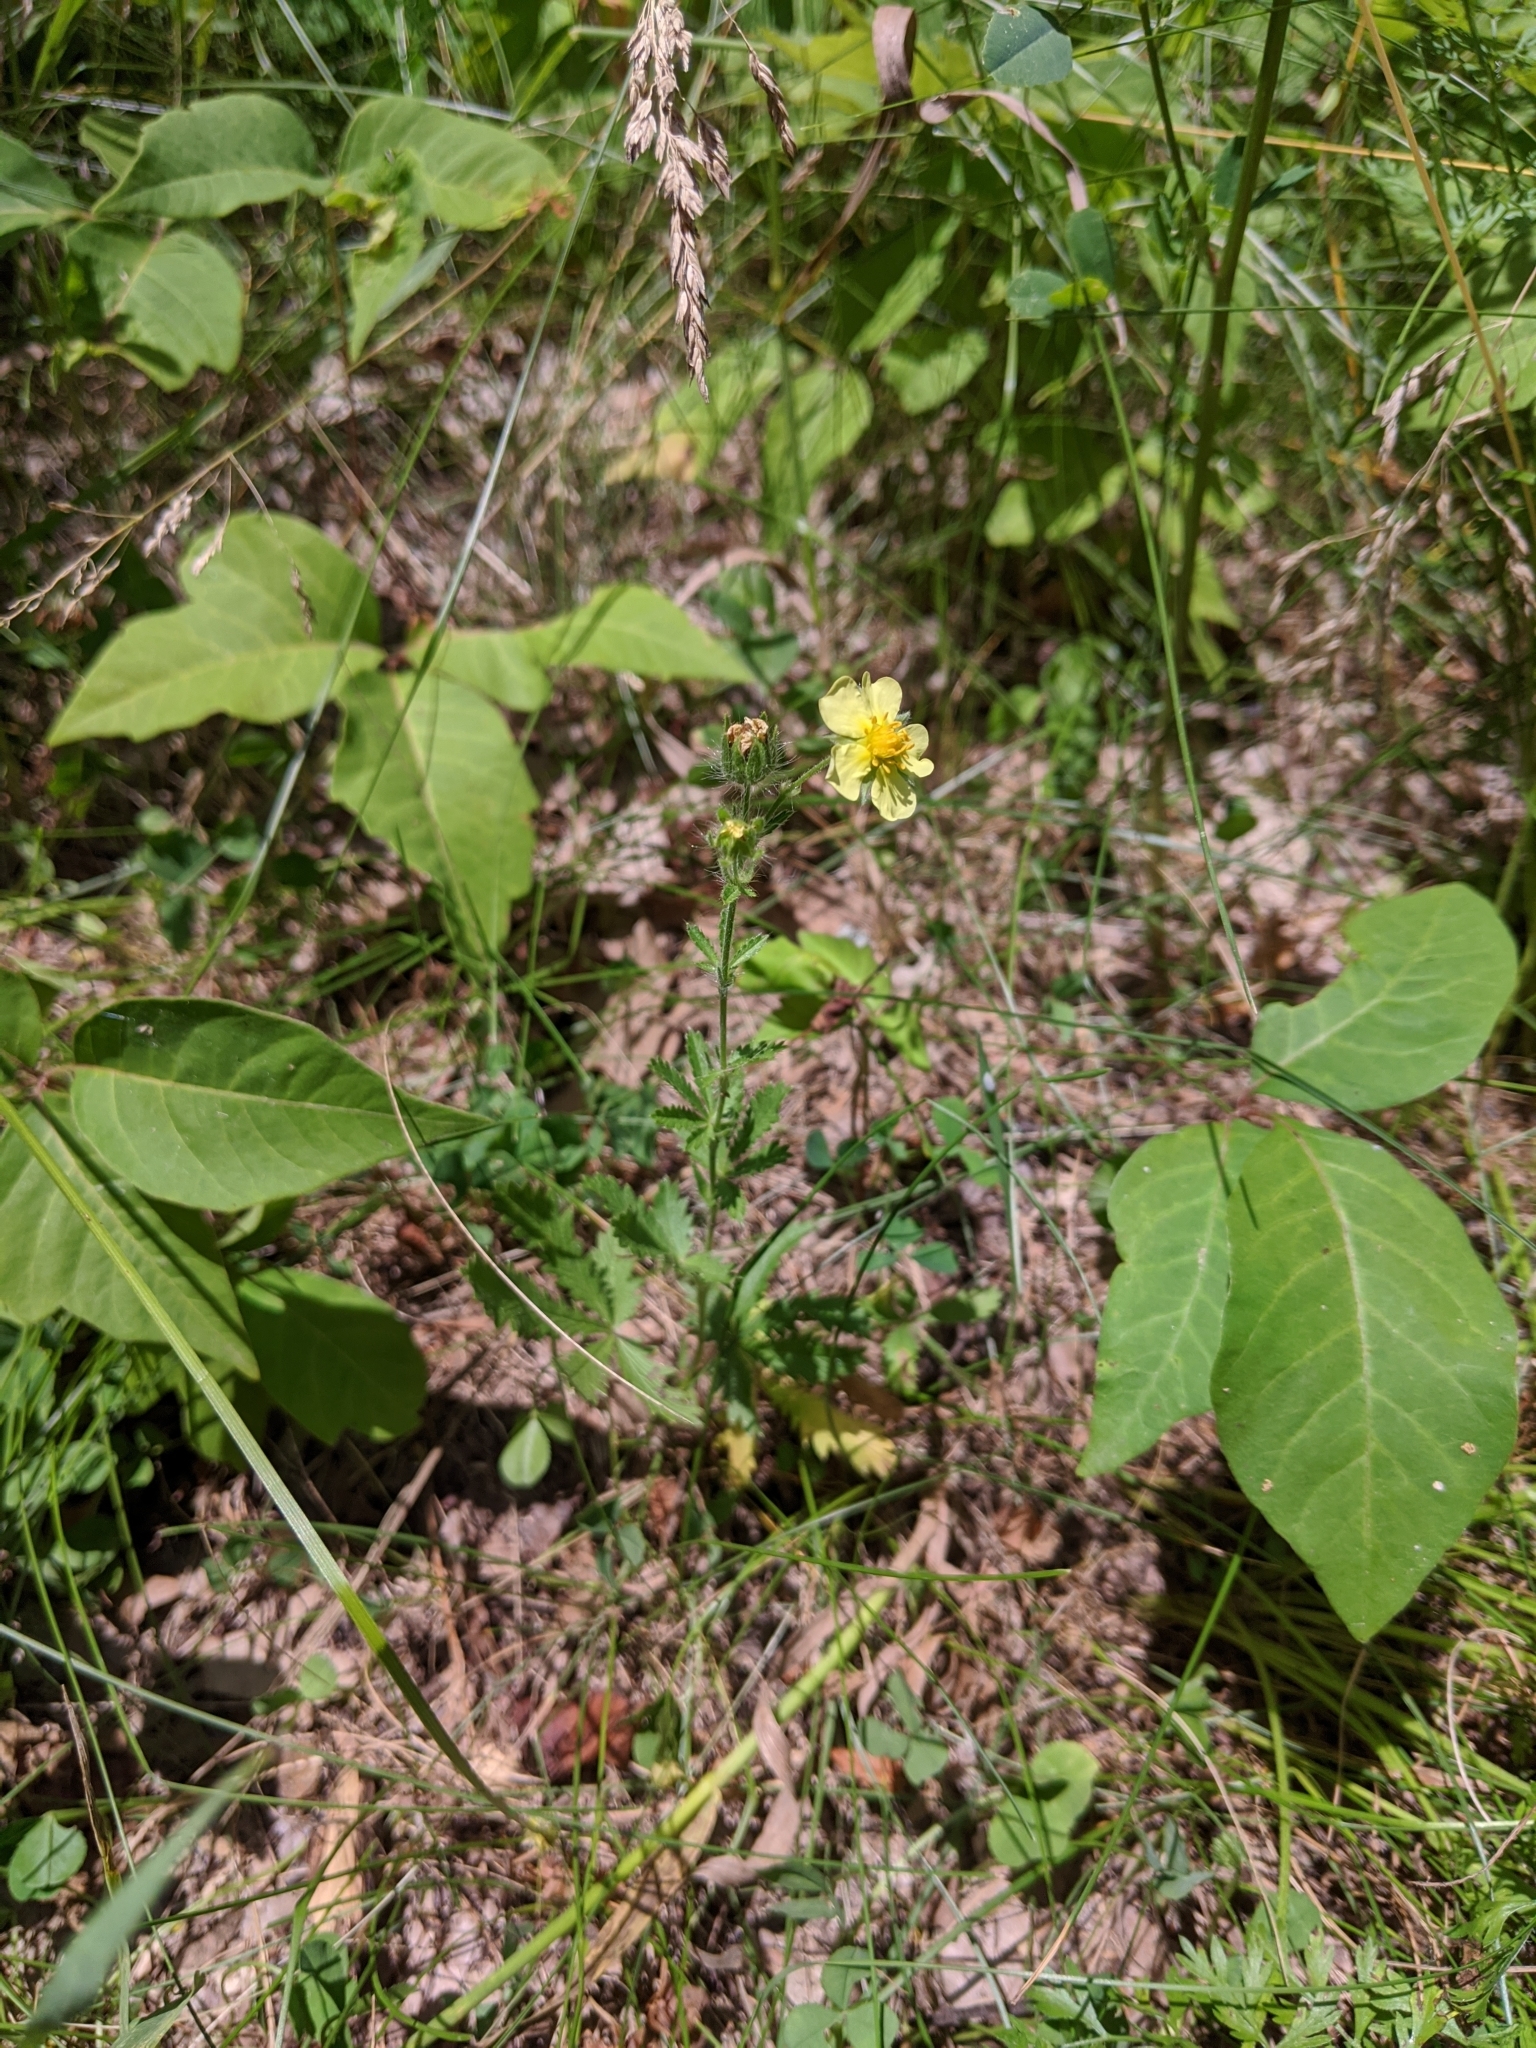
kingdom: Plantae
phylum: Tracheophyta
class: Magnoliopsida
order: Rosales
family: Rosaceae
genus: Potentilla
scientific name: Potentilla recta
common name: Sulphur cinquefoil
